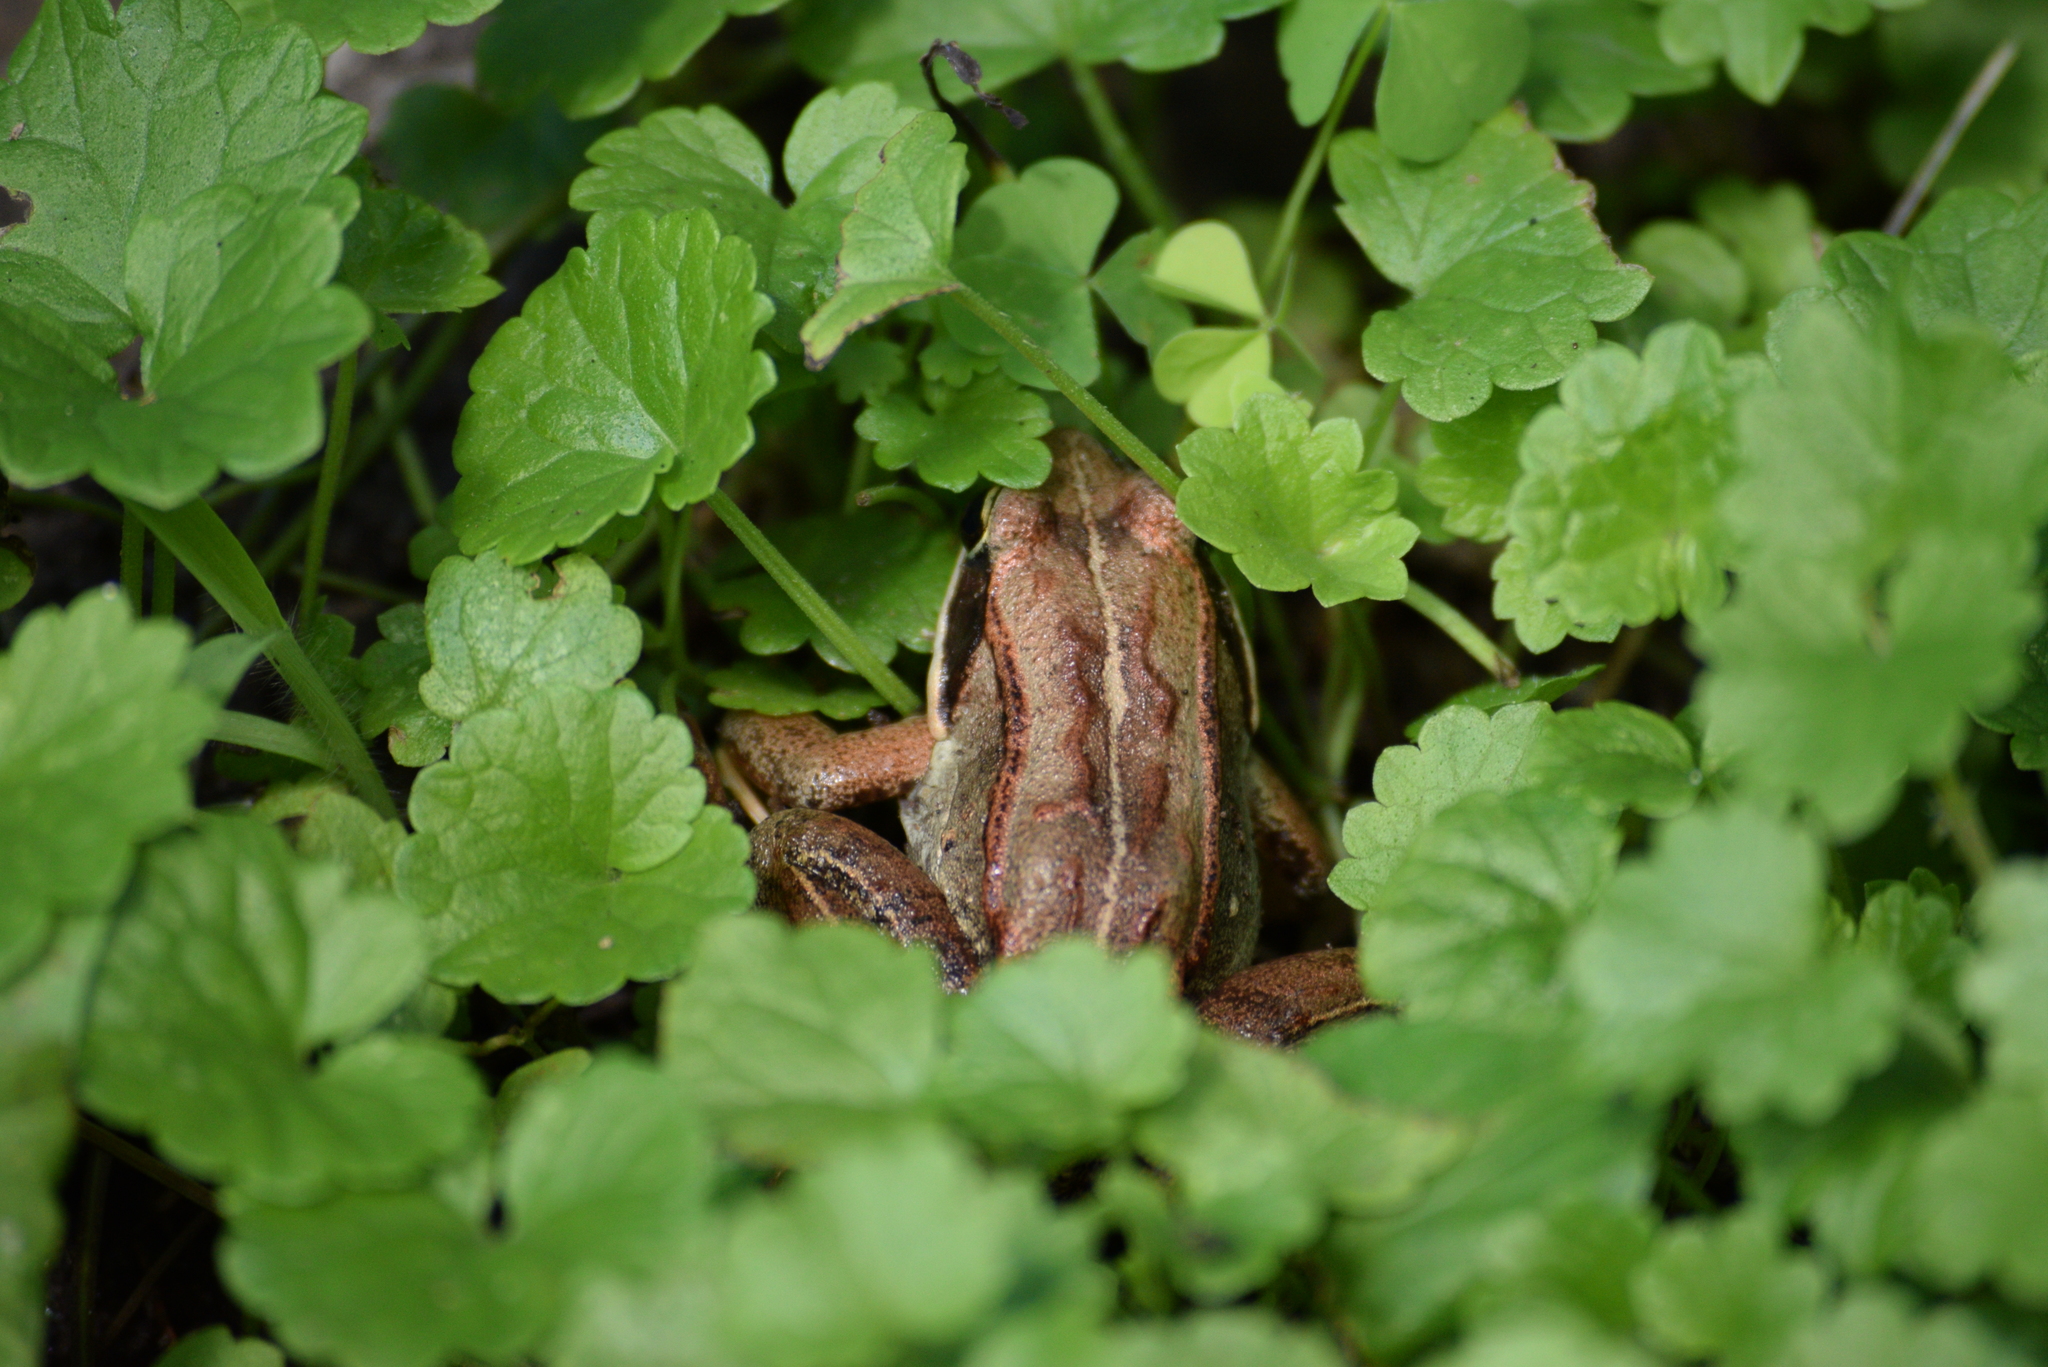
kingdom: Animalia
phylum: Chordata
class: Amphibia
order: Anura
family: Ranidae
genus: Lithobates
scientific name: Lithobates sylvaticus
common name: Wood frog
